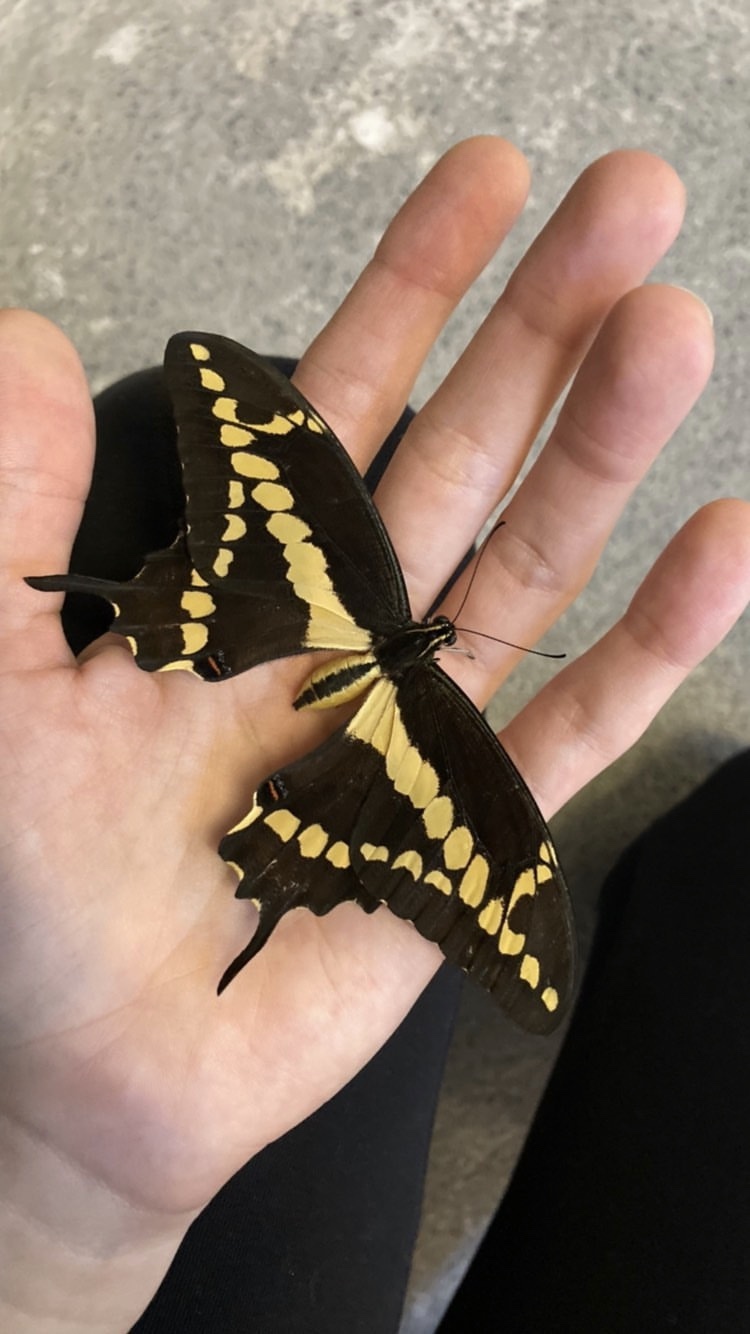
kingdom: Animalia
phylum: Arthropoda
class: Insecta
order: Lepidoptera
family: Papilionidae
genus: Papilio
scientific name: Papilio rumiko
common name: Western giant swallowtail
